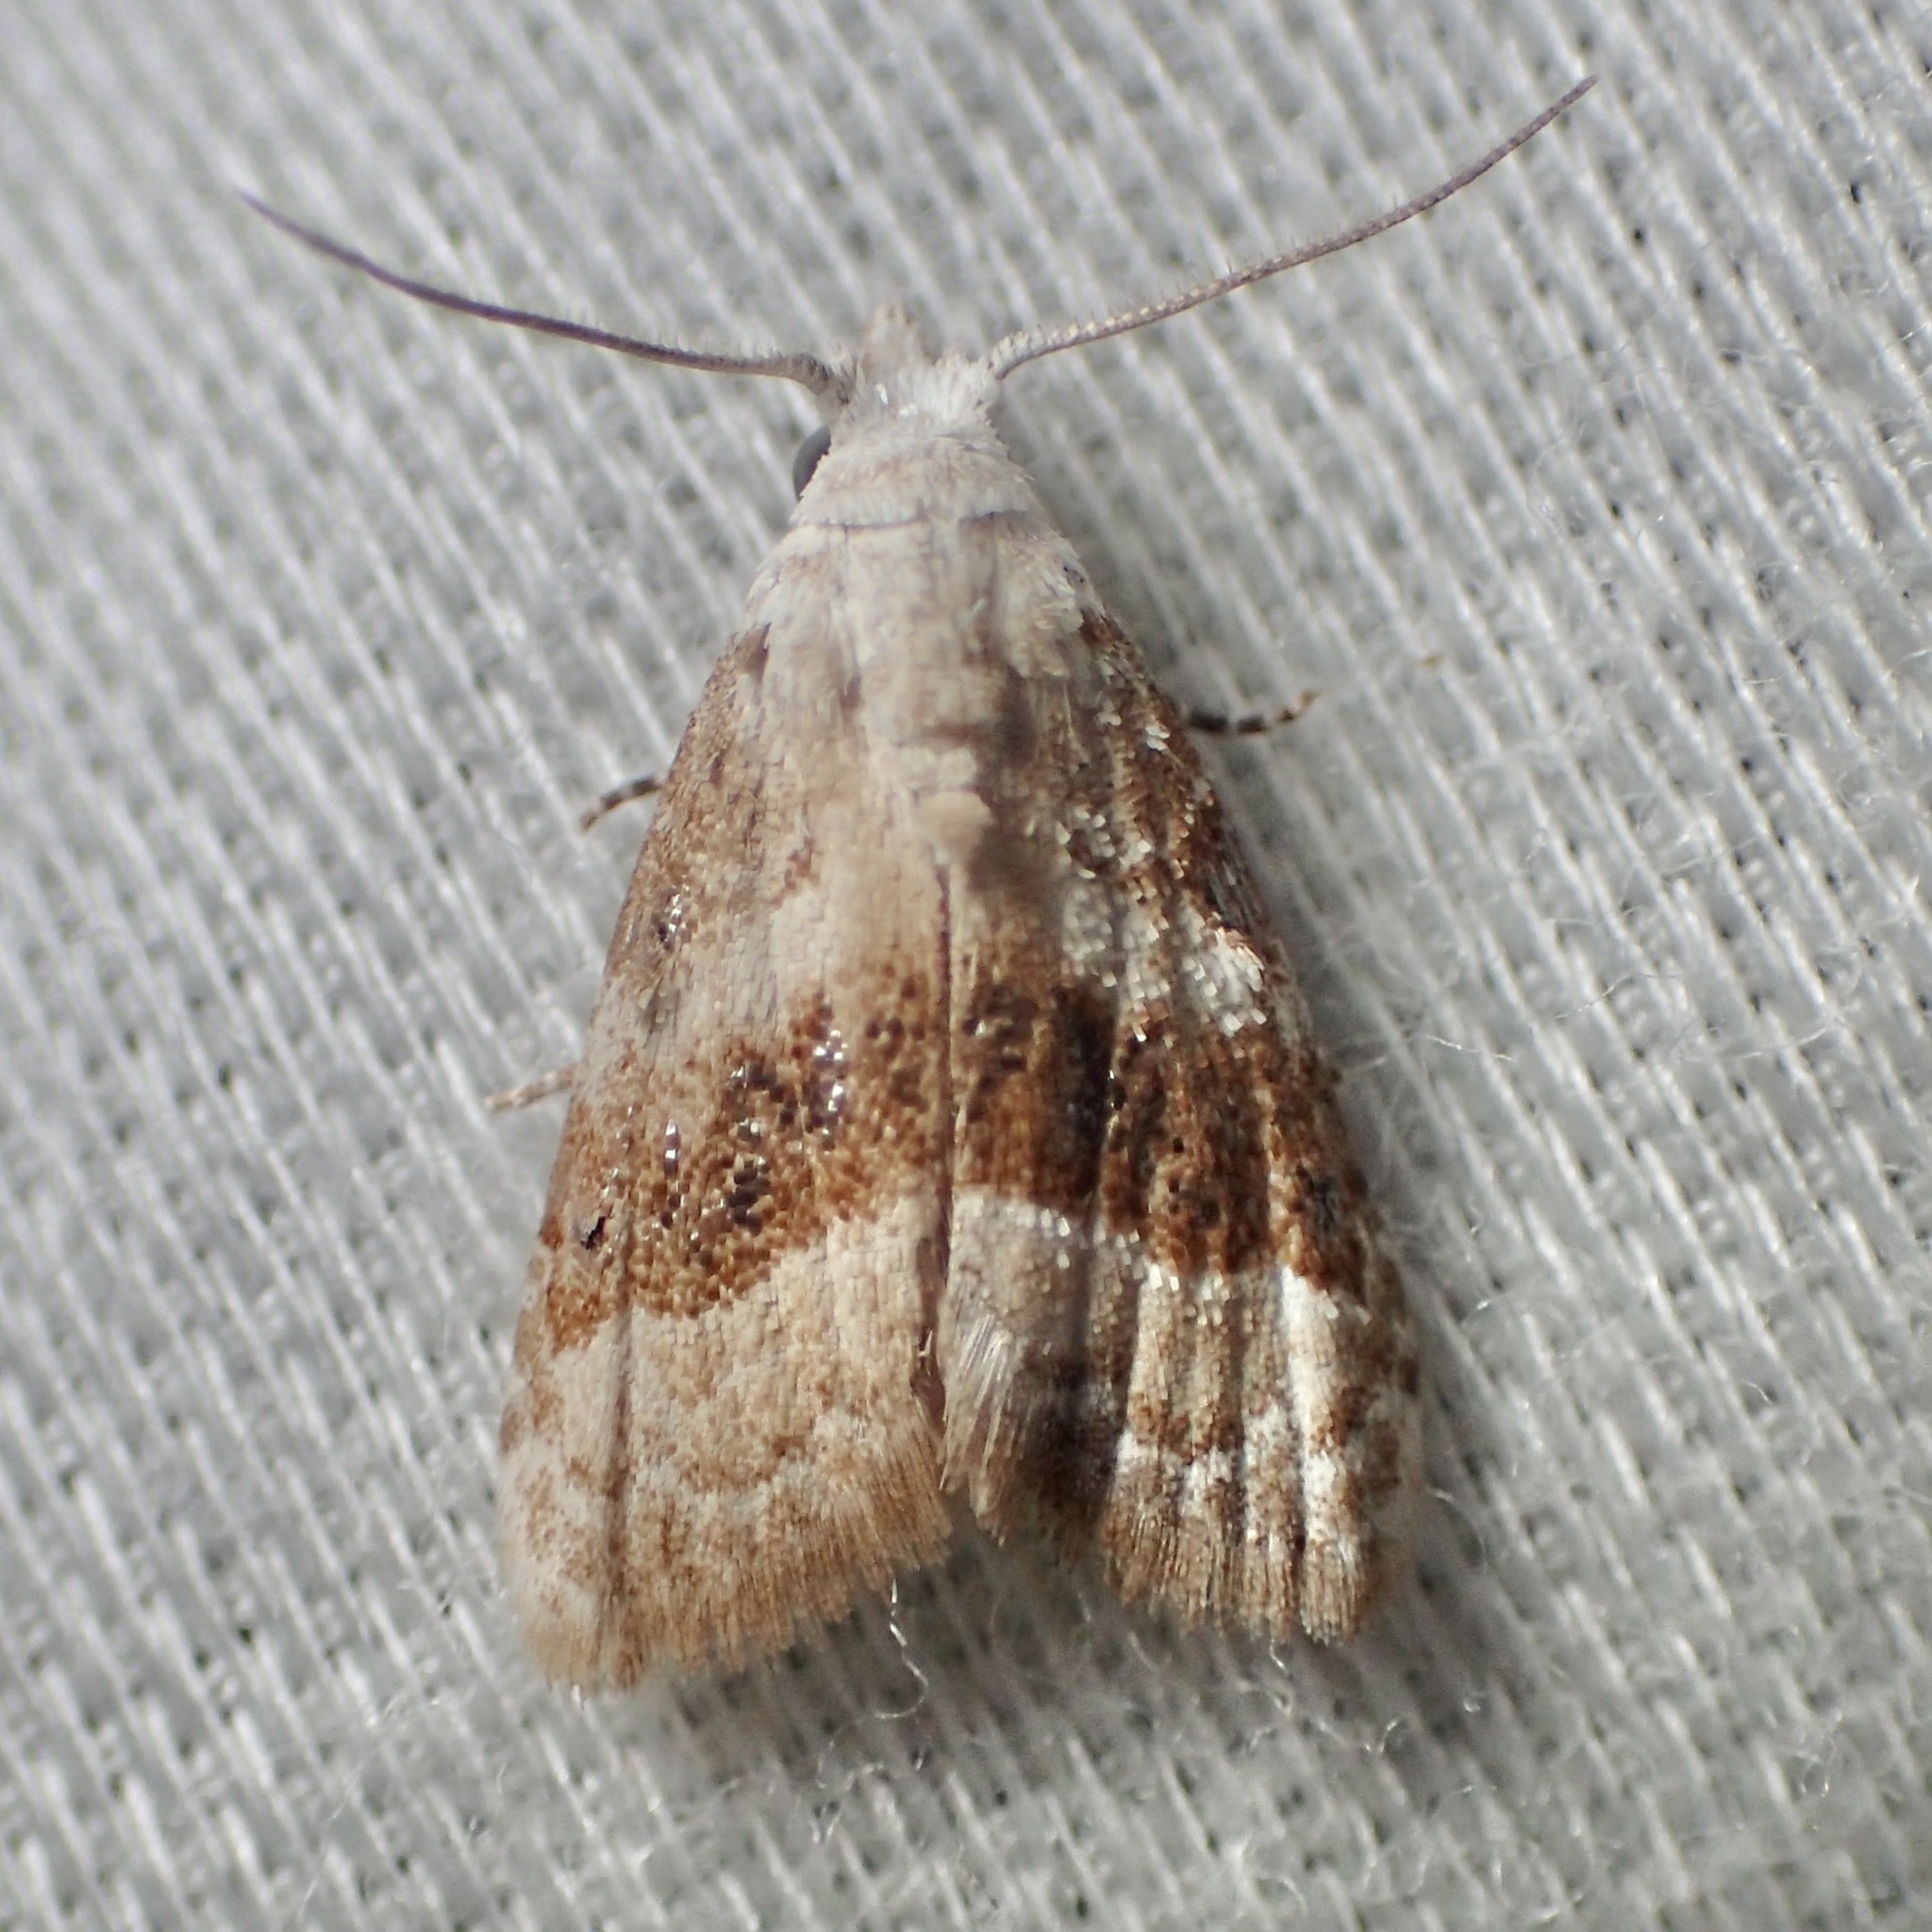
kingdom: Animalia
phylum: Arthropoda
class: Insecta
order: Lepidoptera
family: Nolidae
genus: Nola
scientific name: Nola taeniata
